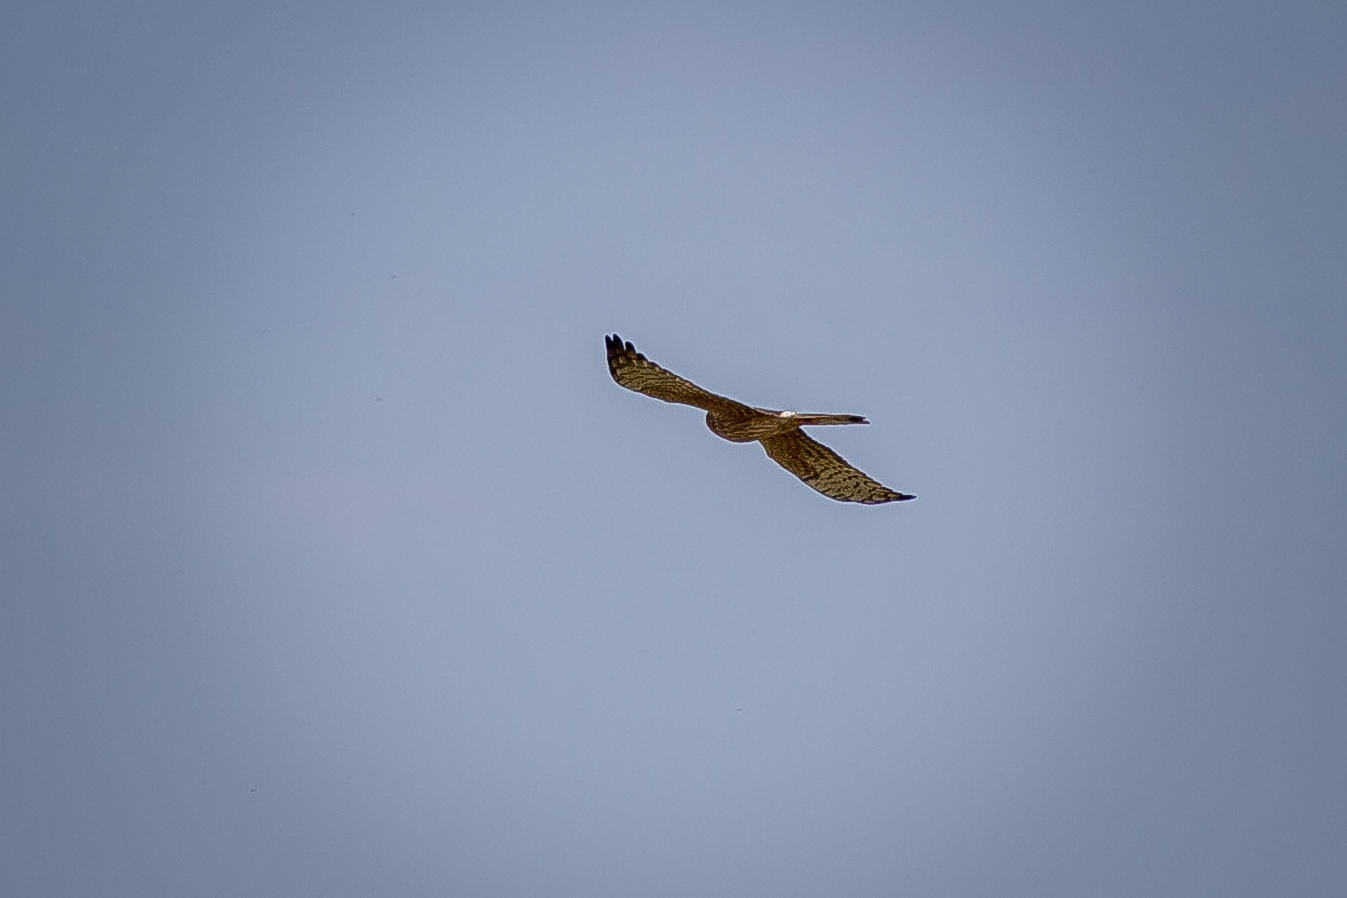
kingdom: Animalia
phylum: Chordata
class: Aves
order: Accipitriformes
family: Accipitridae
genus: Circus
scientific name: Circus pygargus
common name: Montagu's harrier
